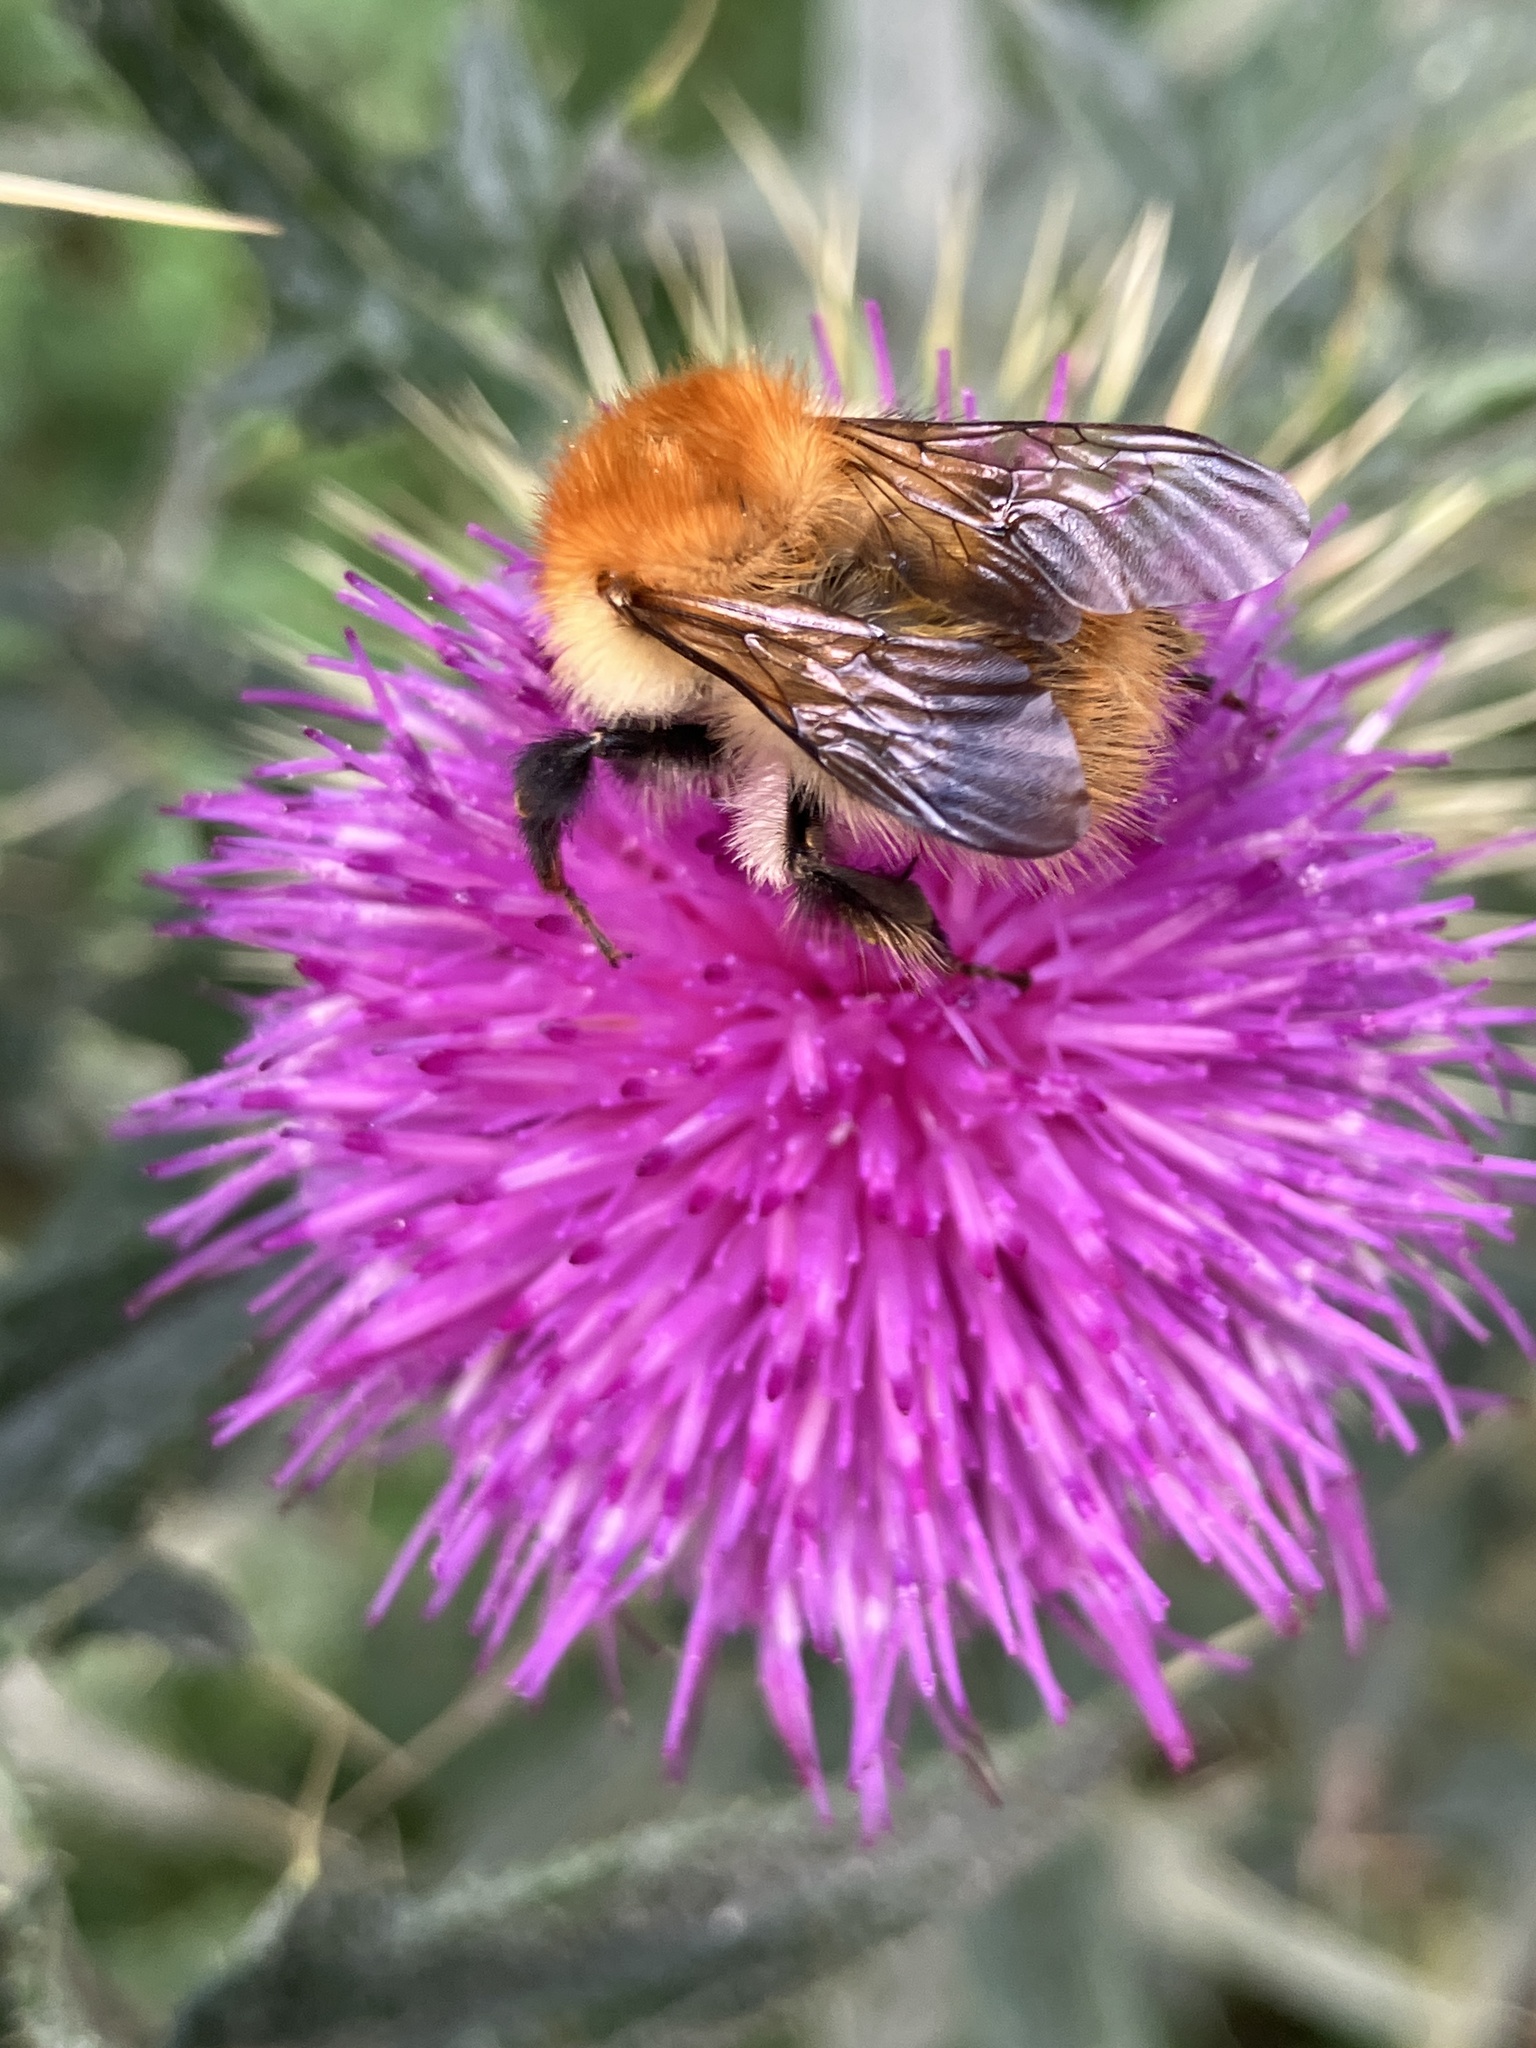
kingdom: Animalia
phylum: Arthropoda
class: Insecta
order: Hymenoptera
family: Apidae
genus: Bombus
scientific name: Bombus pascuorum
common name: Common carder bee
